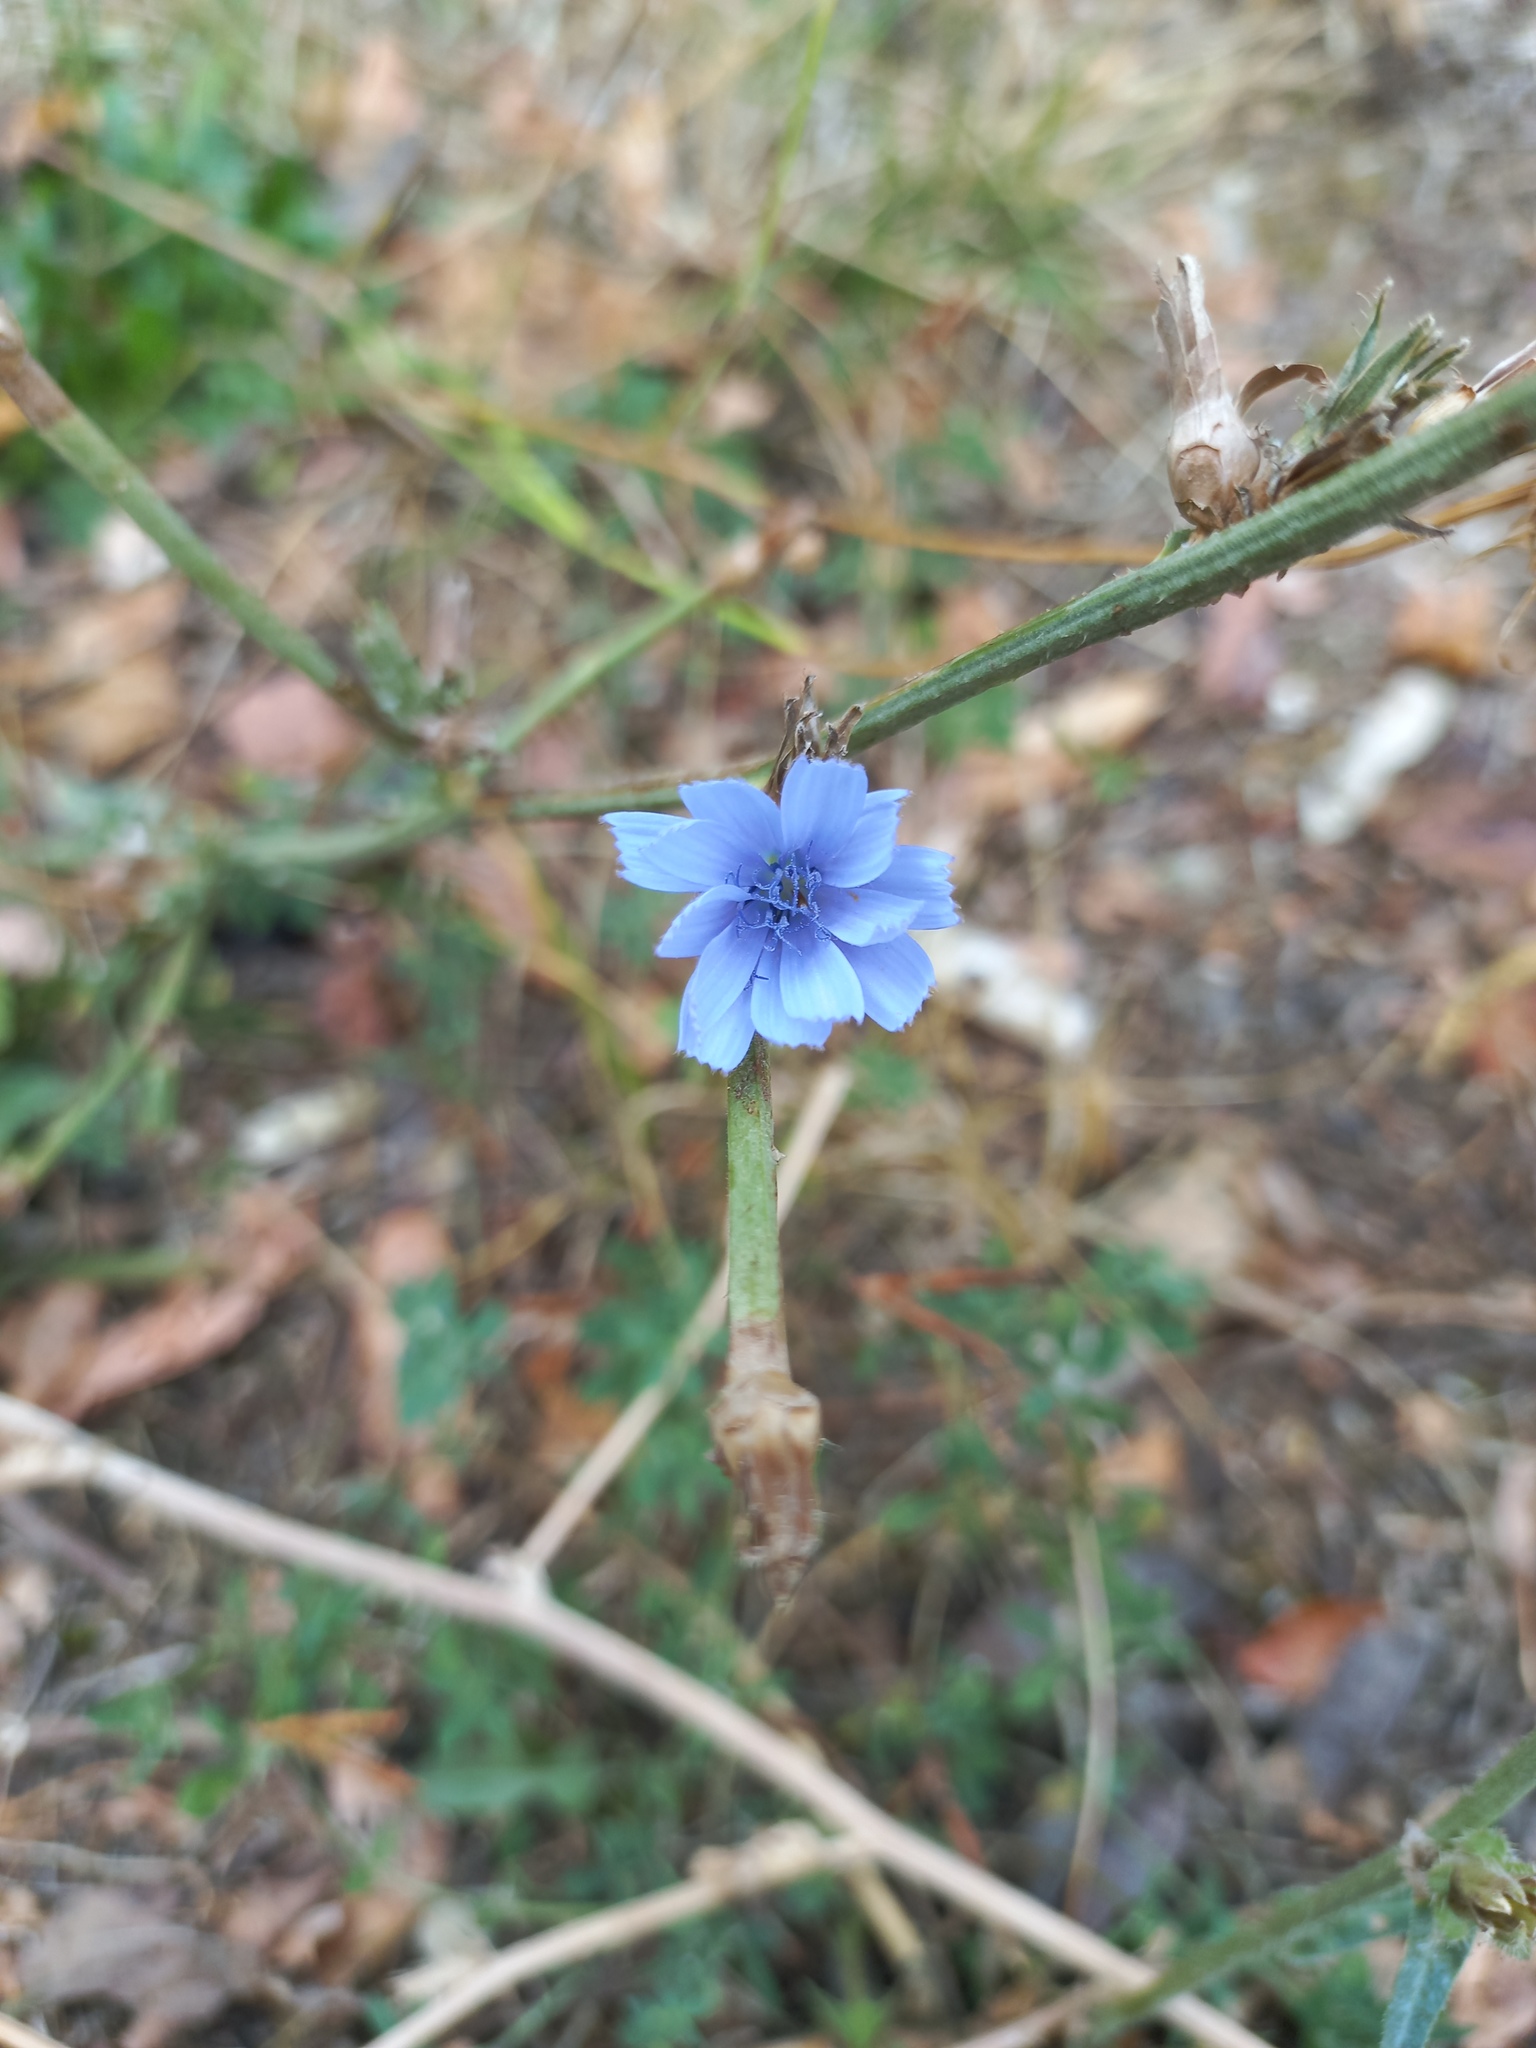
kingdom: Plantae
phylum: Tracheophyta
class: Magnoliopsida
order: Asterales
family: Asteraceae
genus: Cichorium
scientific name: Cichorium intybus
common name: Chicory
